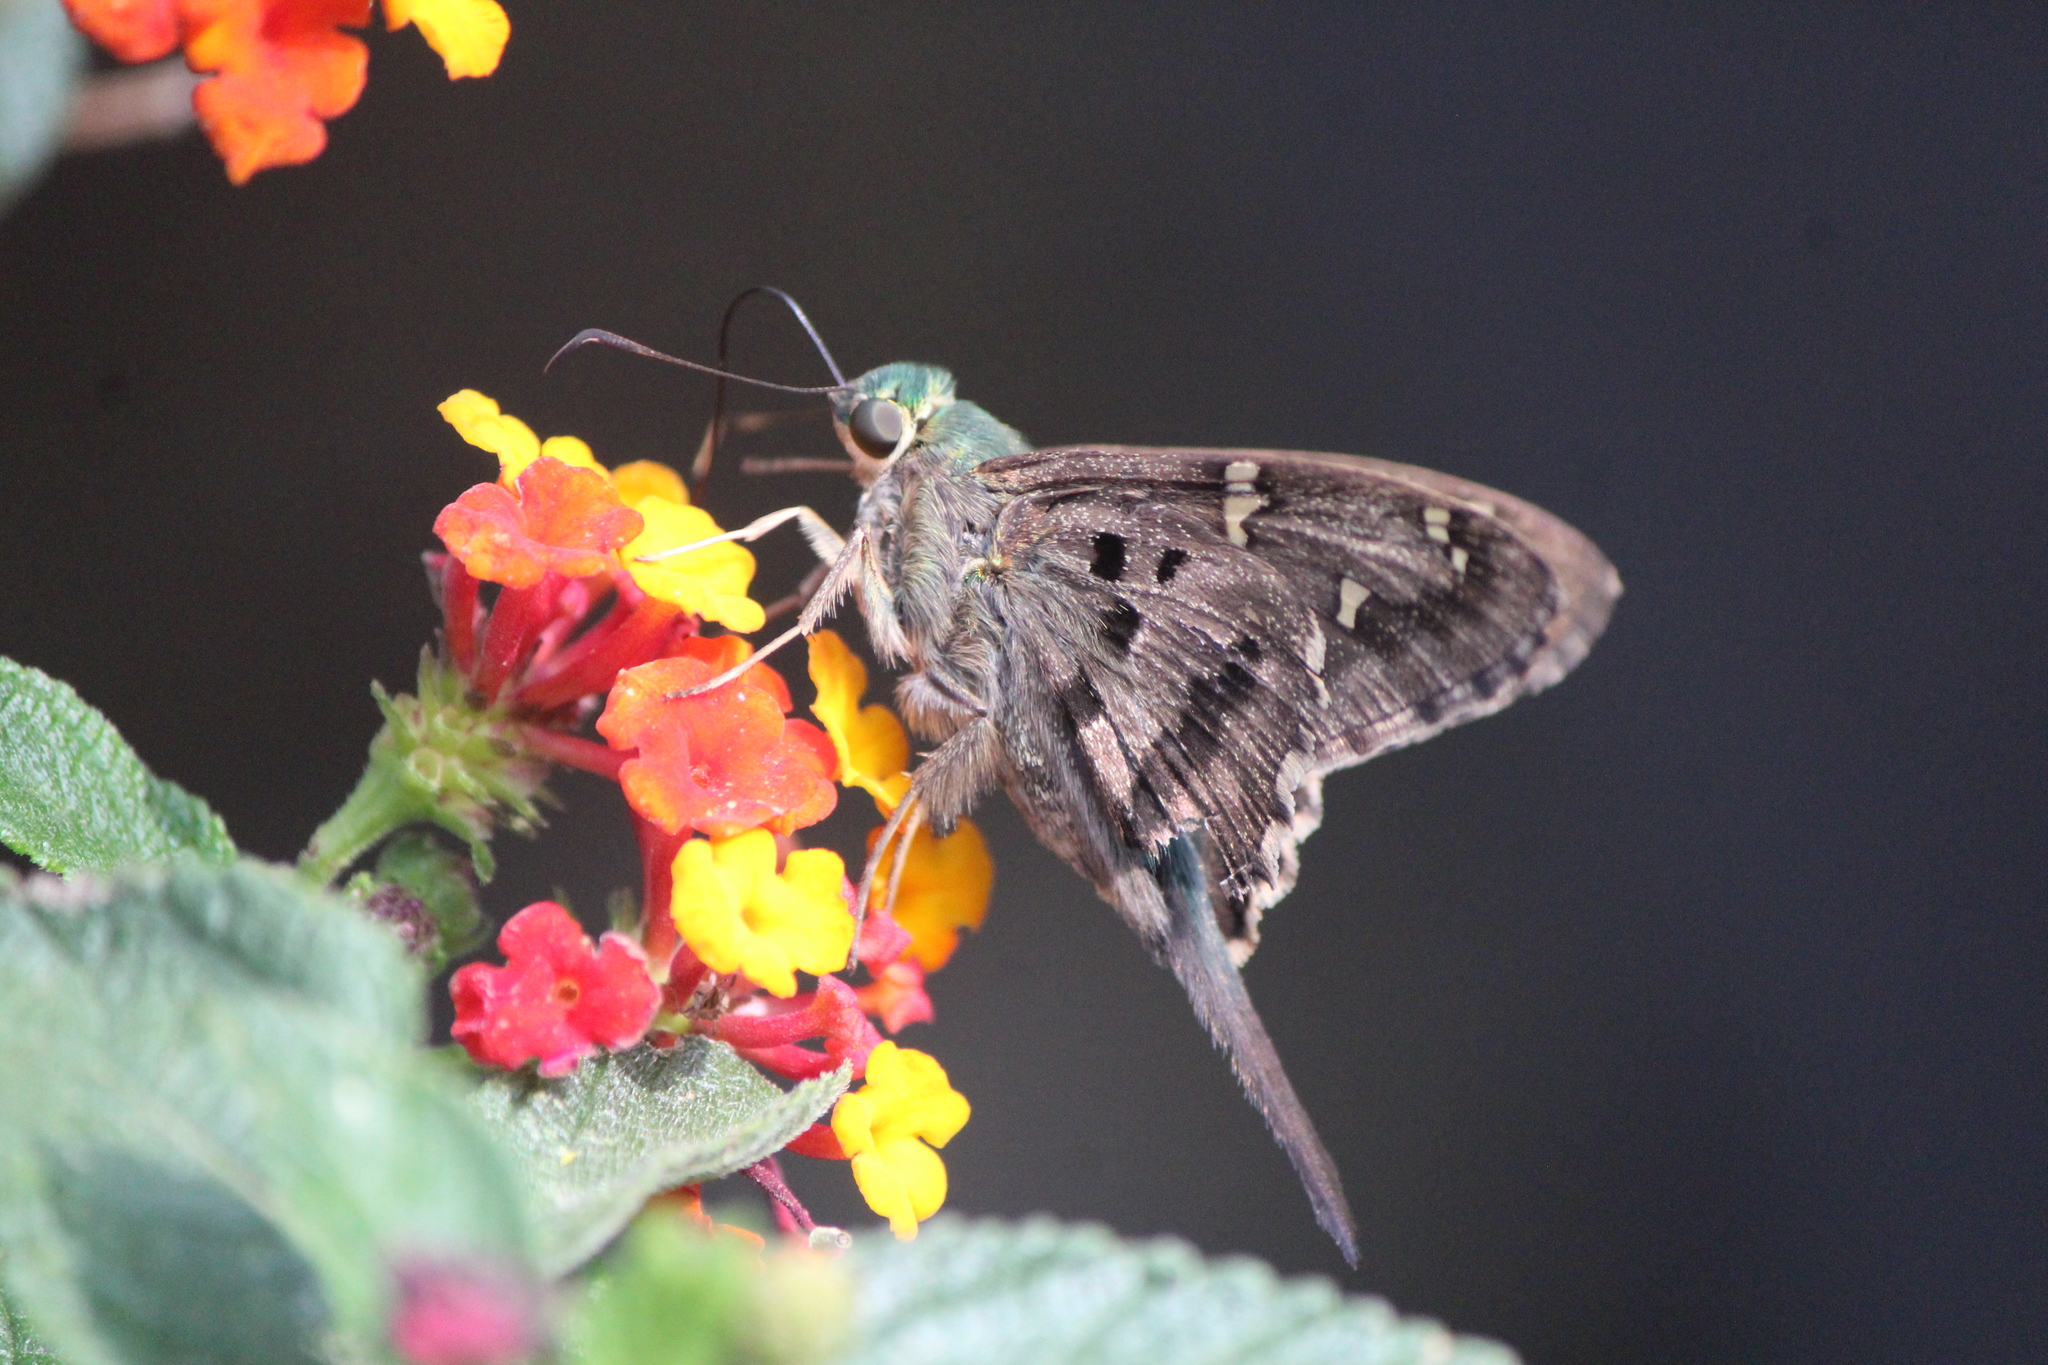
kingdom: Animalia
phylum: Arthropoda
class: Insecta
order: Lepidoptera
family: Hesperiidae
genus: Urbanus
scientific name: Urbanus proteus
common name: Long-tailed skipper
